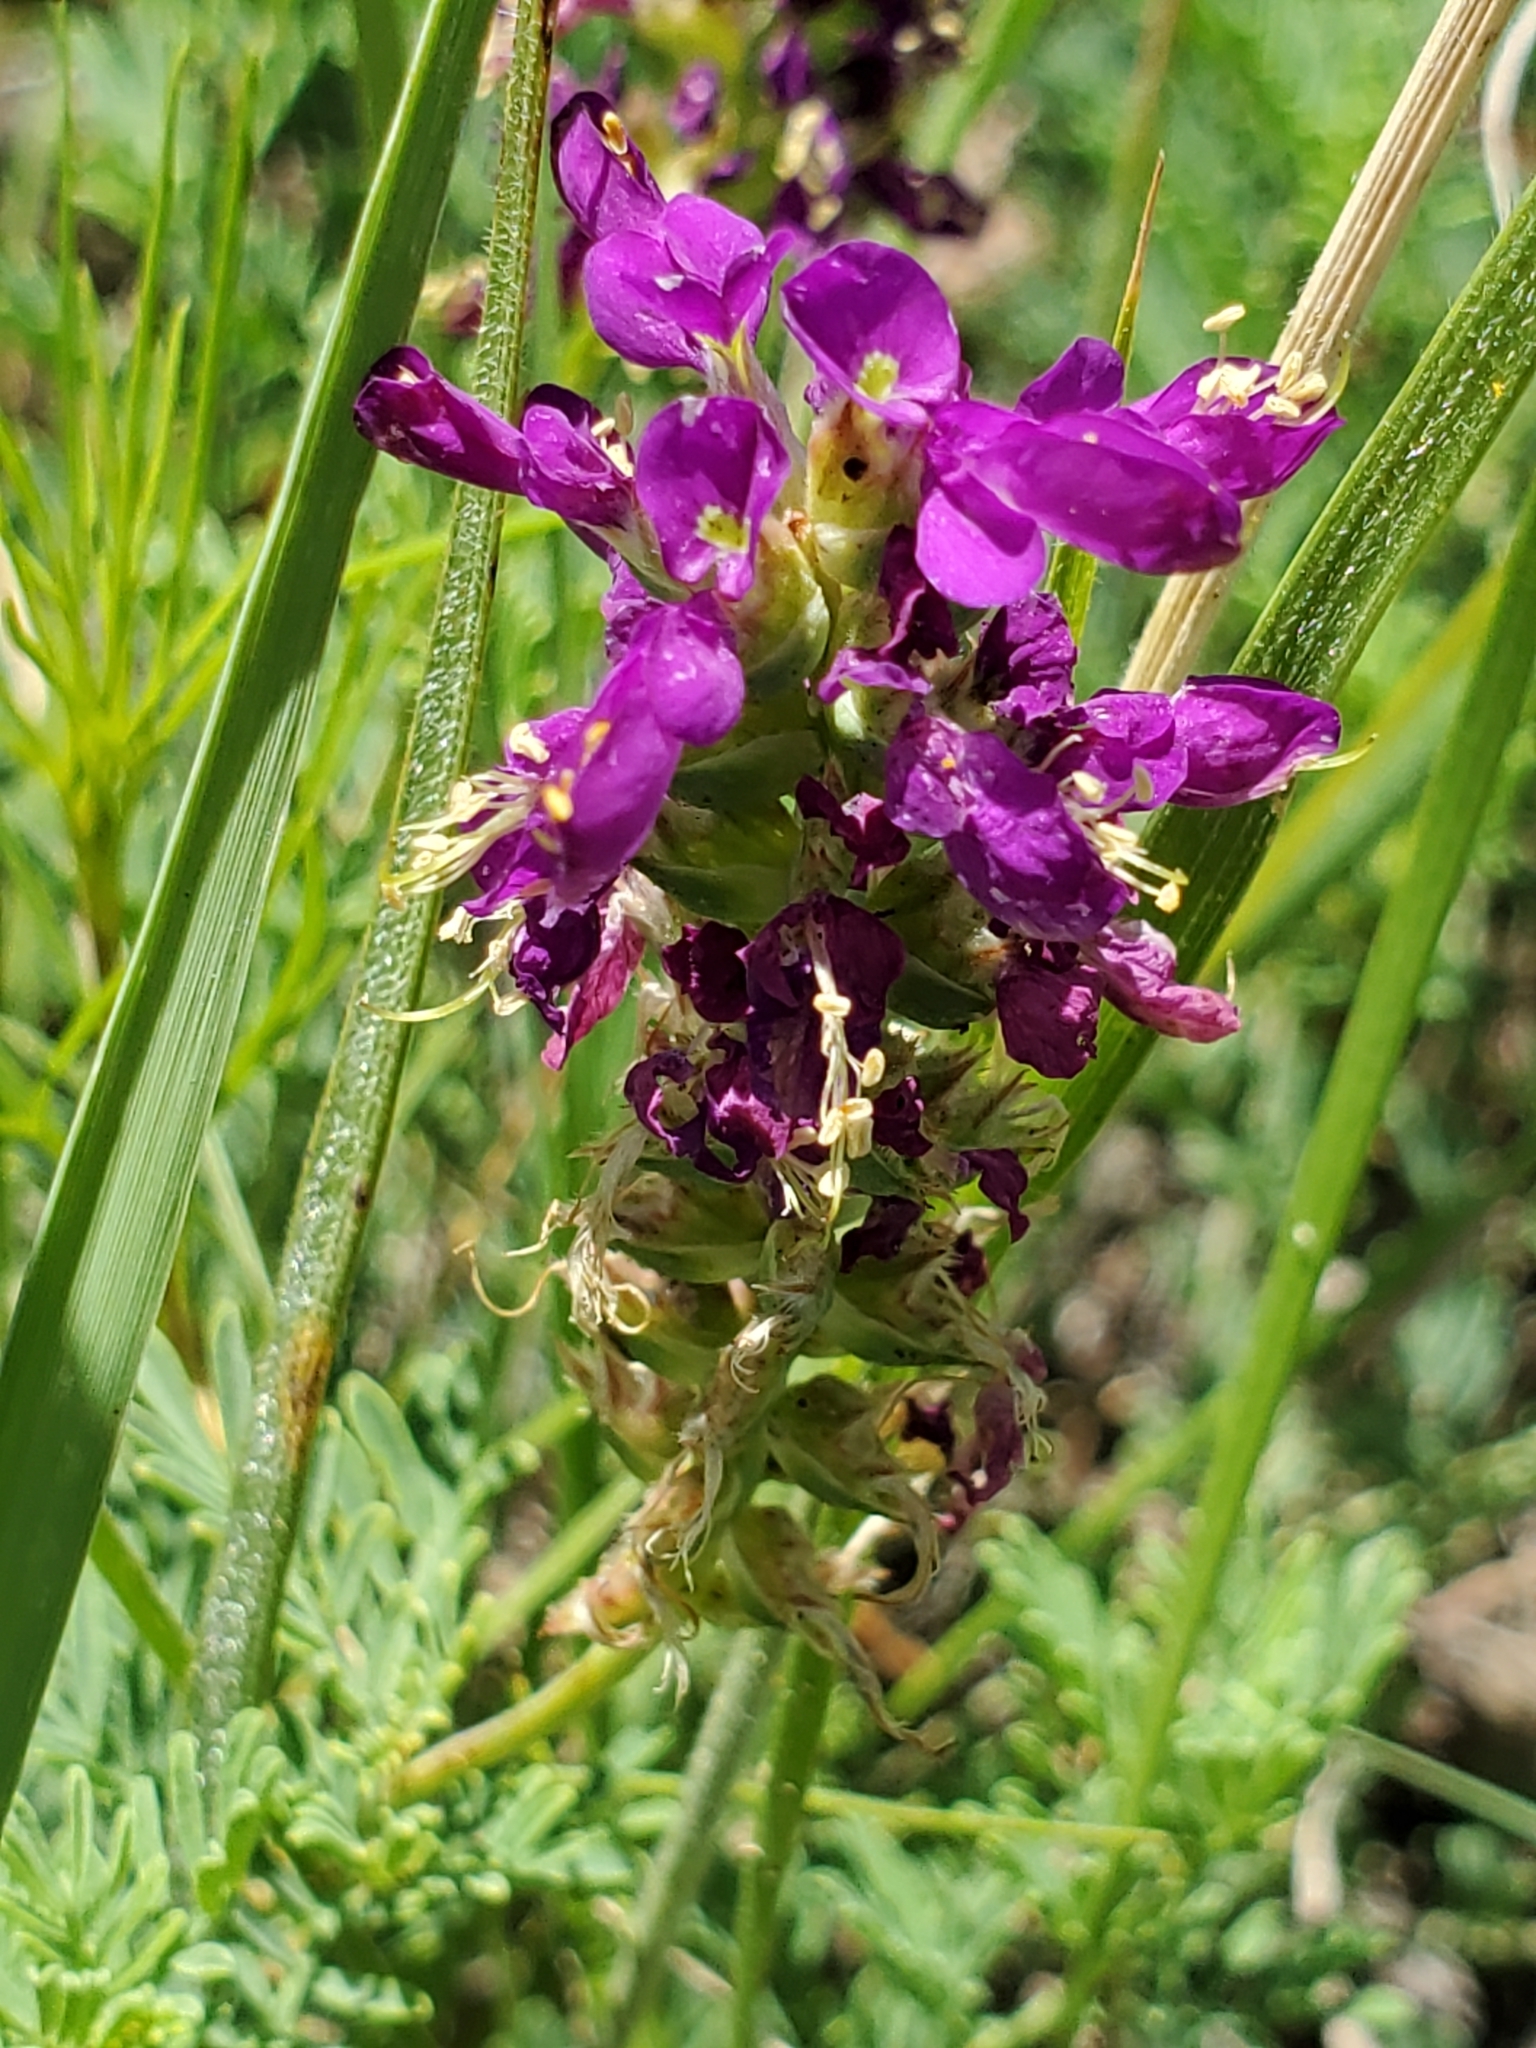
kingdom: Plantae
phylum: Tracheophyta
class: Magnoliopsida
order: Fabales
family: Fabaceae
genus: Dalea
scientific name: Dalea lasiathera
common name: Purple prairie-clover
